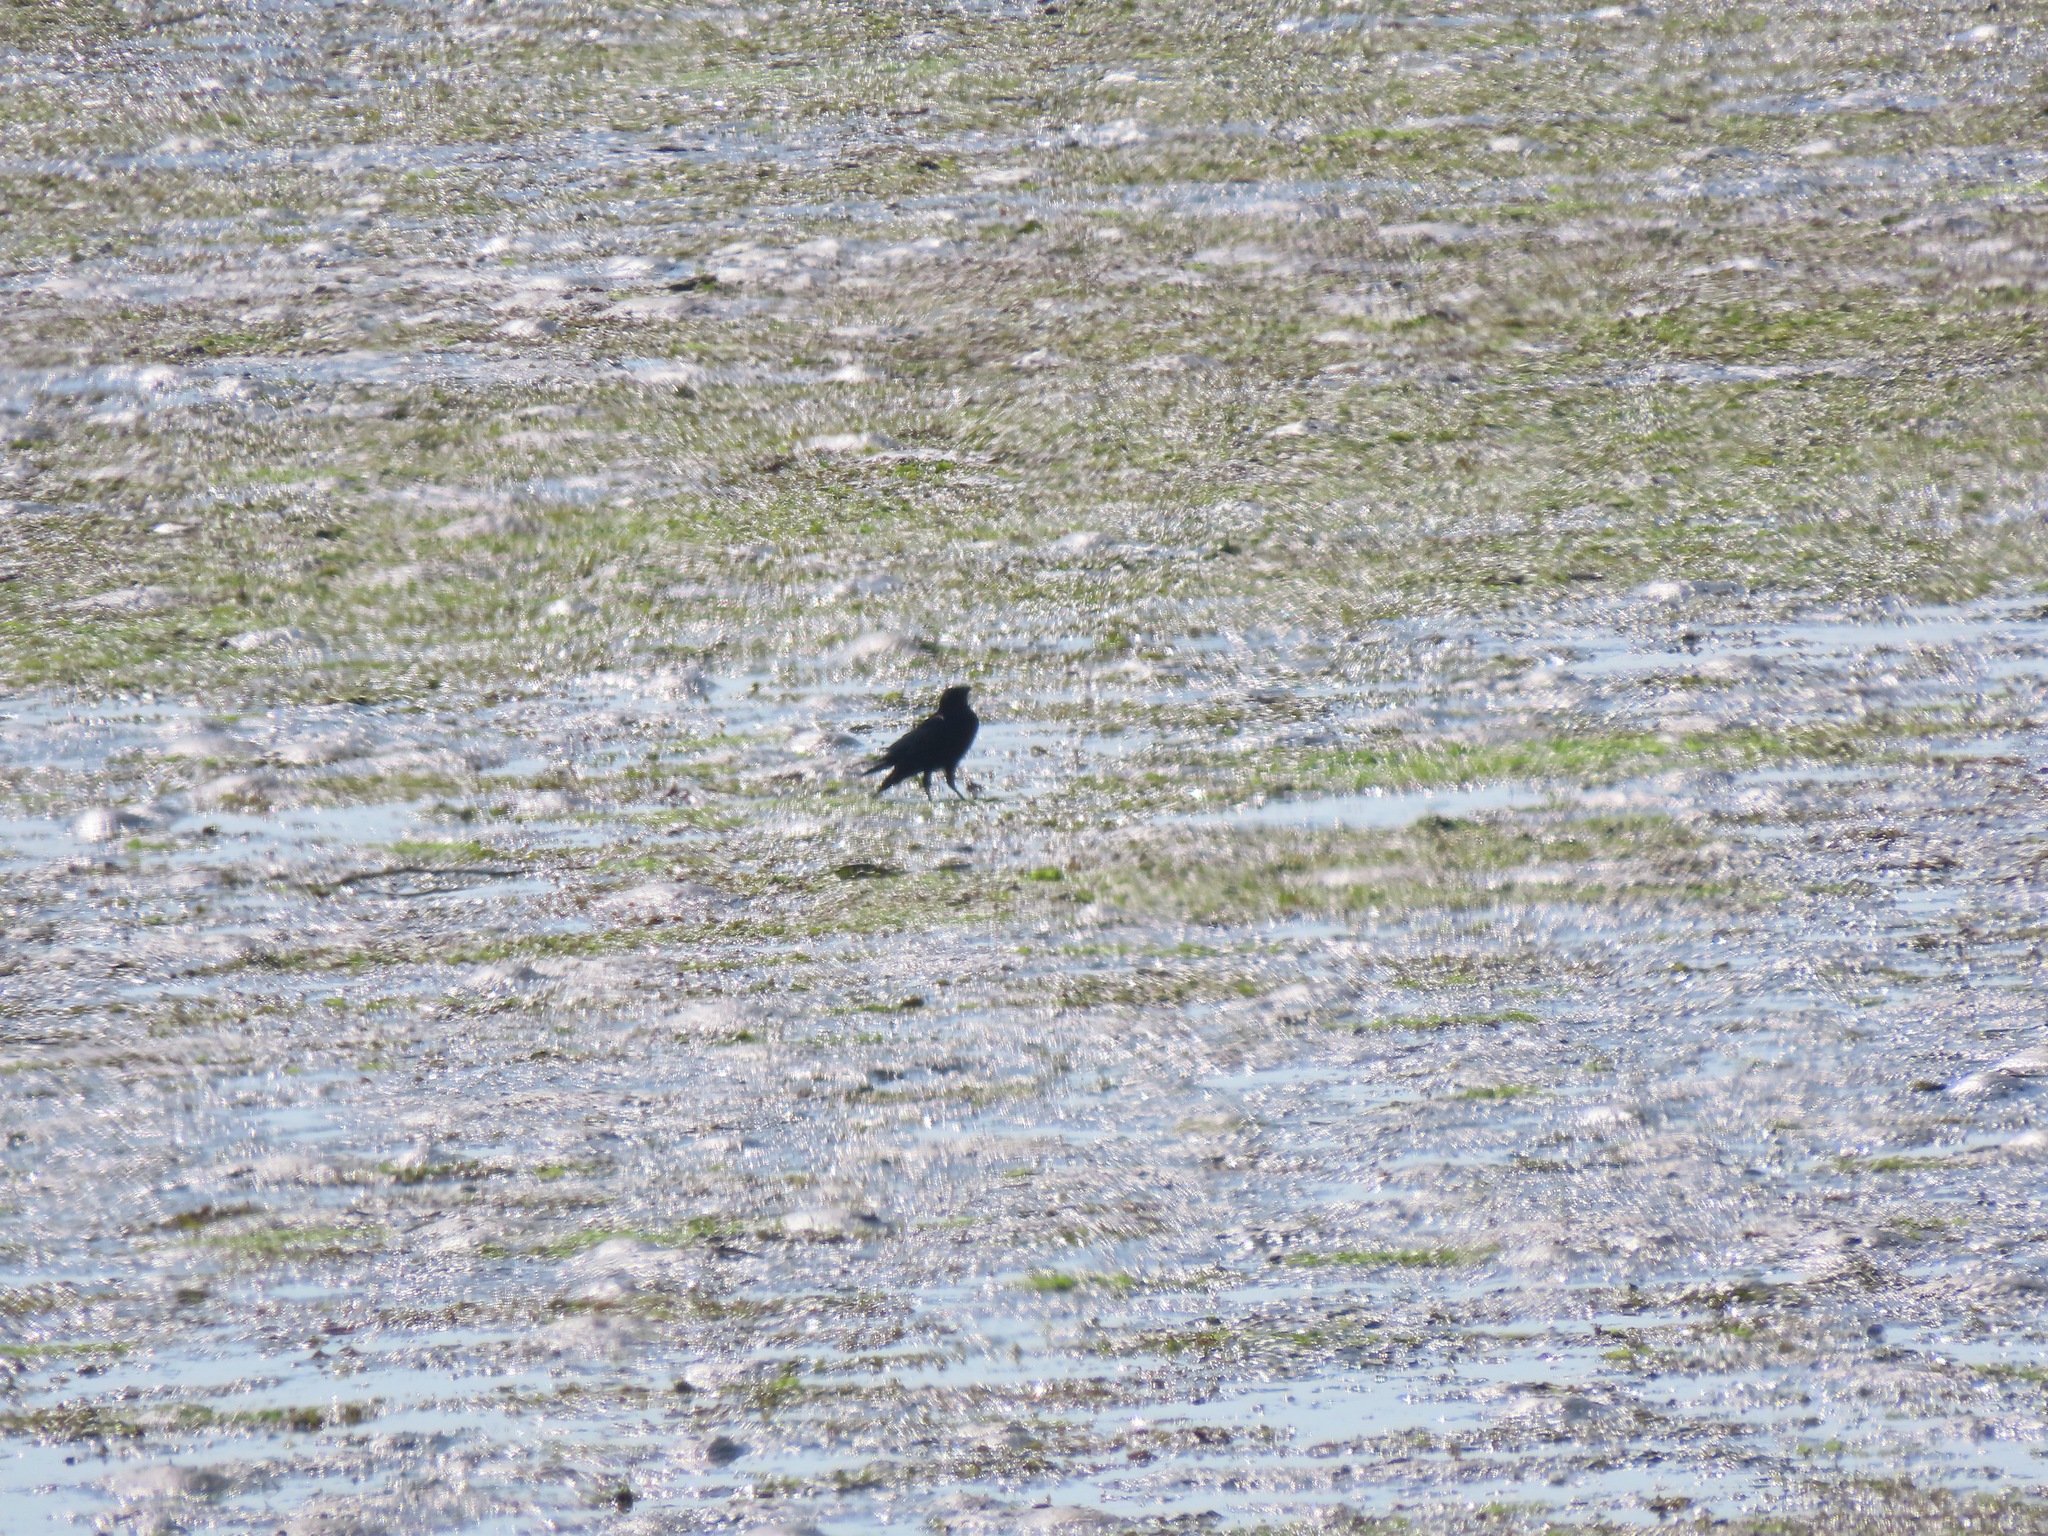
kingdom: Animalia
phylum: Chordata
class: Aves
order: Passeriformes
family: Corvidae
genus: Corvus
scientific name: Corvus brachyrhynchos
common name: American crow
